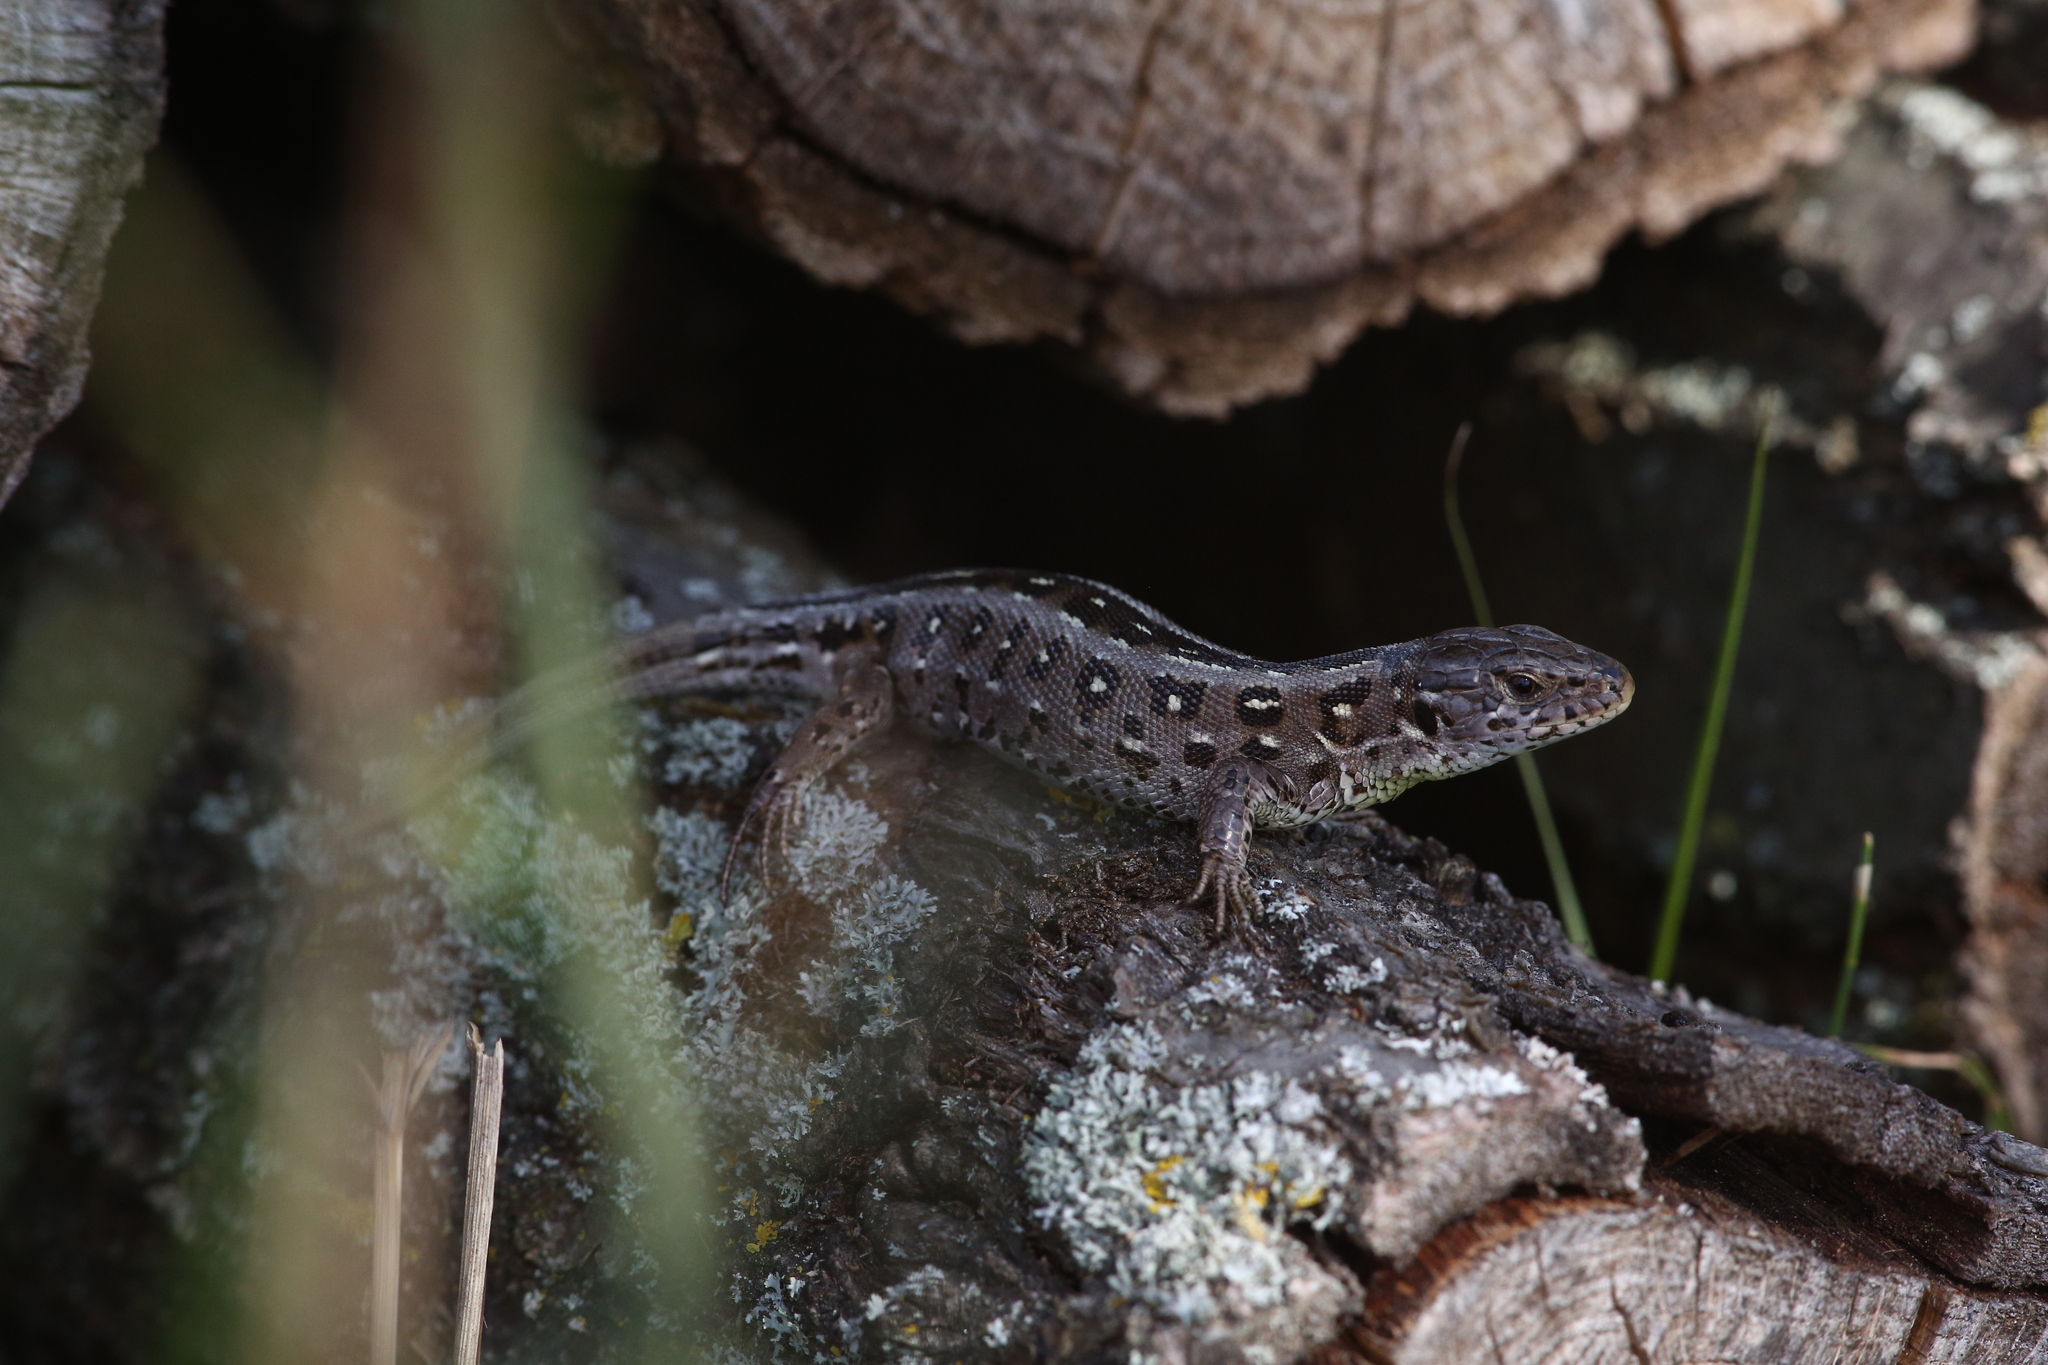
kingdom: Animalia
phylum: Chordata
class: Squamata
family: Lacertidae
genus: Lacerta
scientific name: Lacerta agilis
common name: Sand lizard
